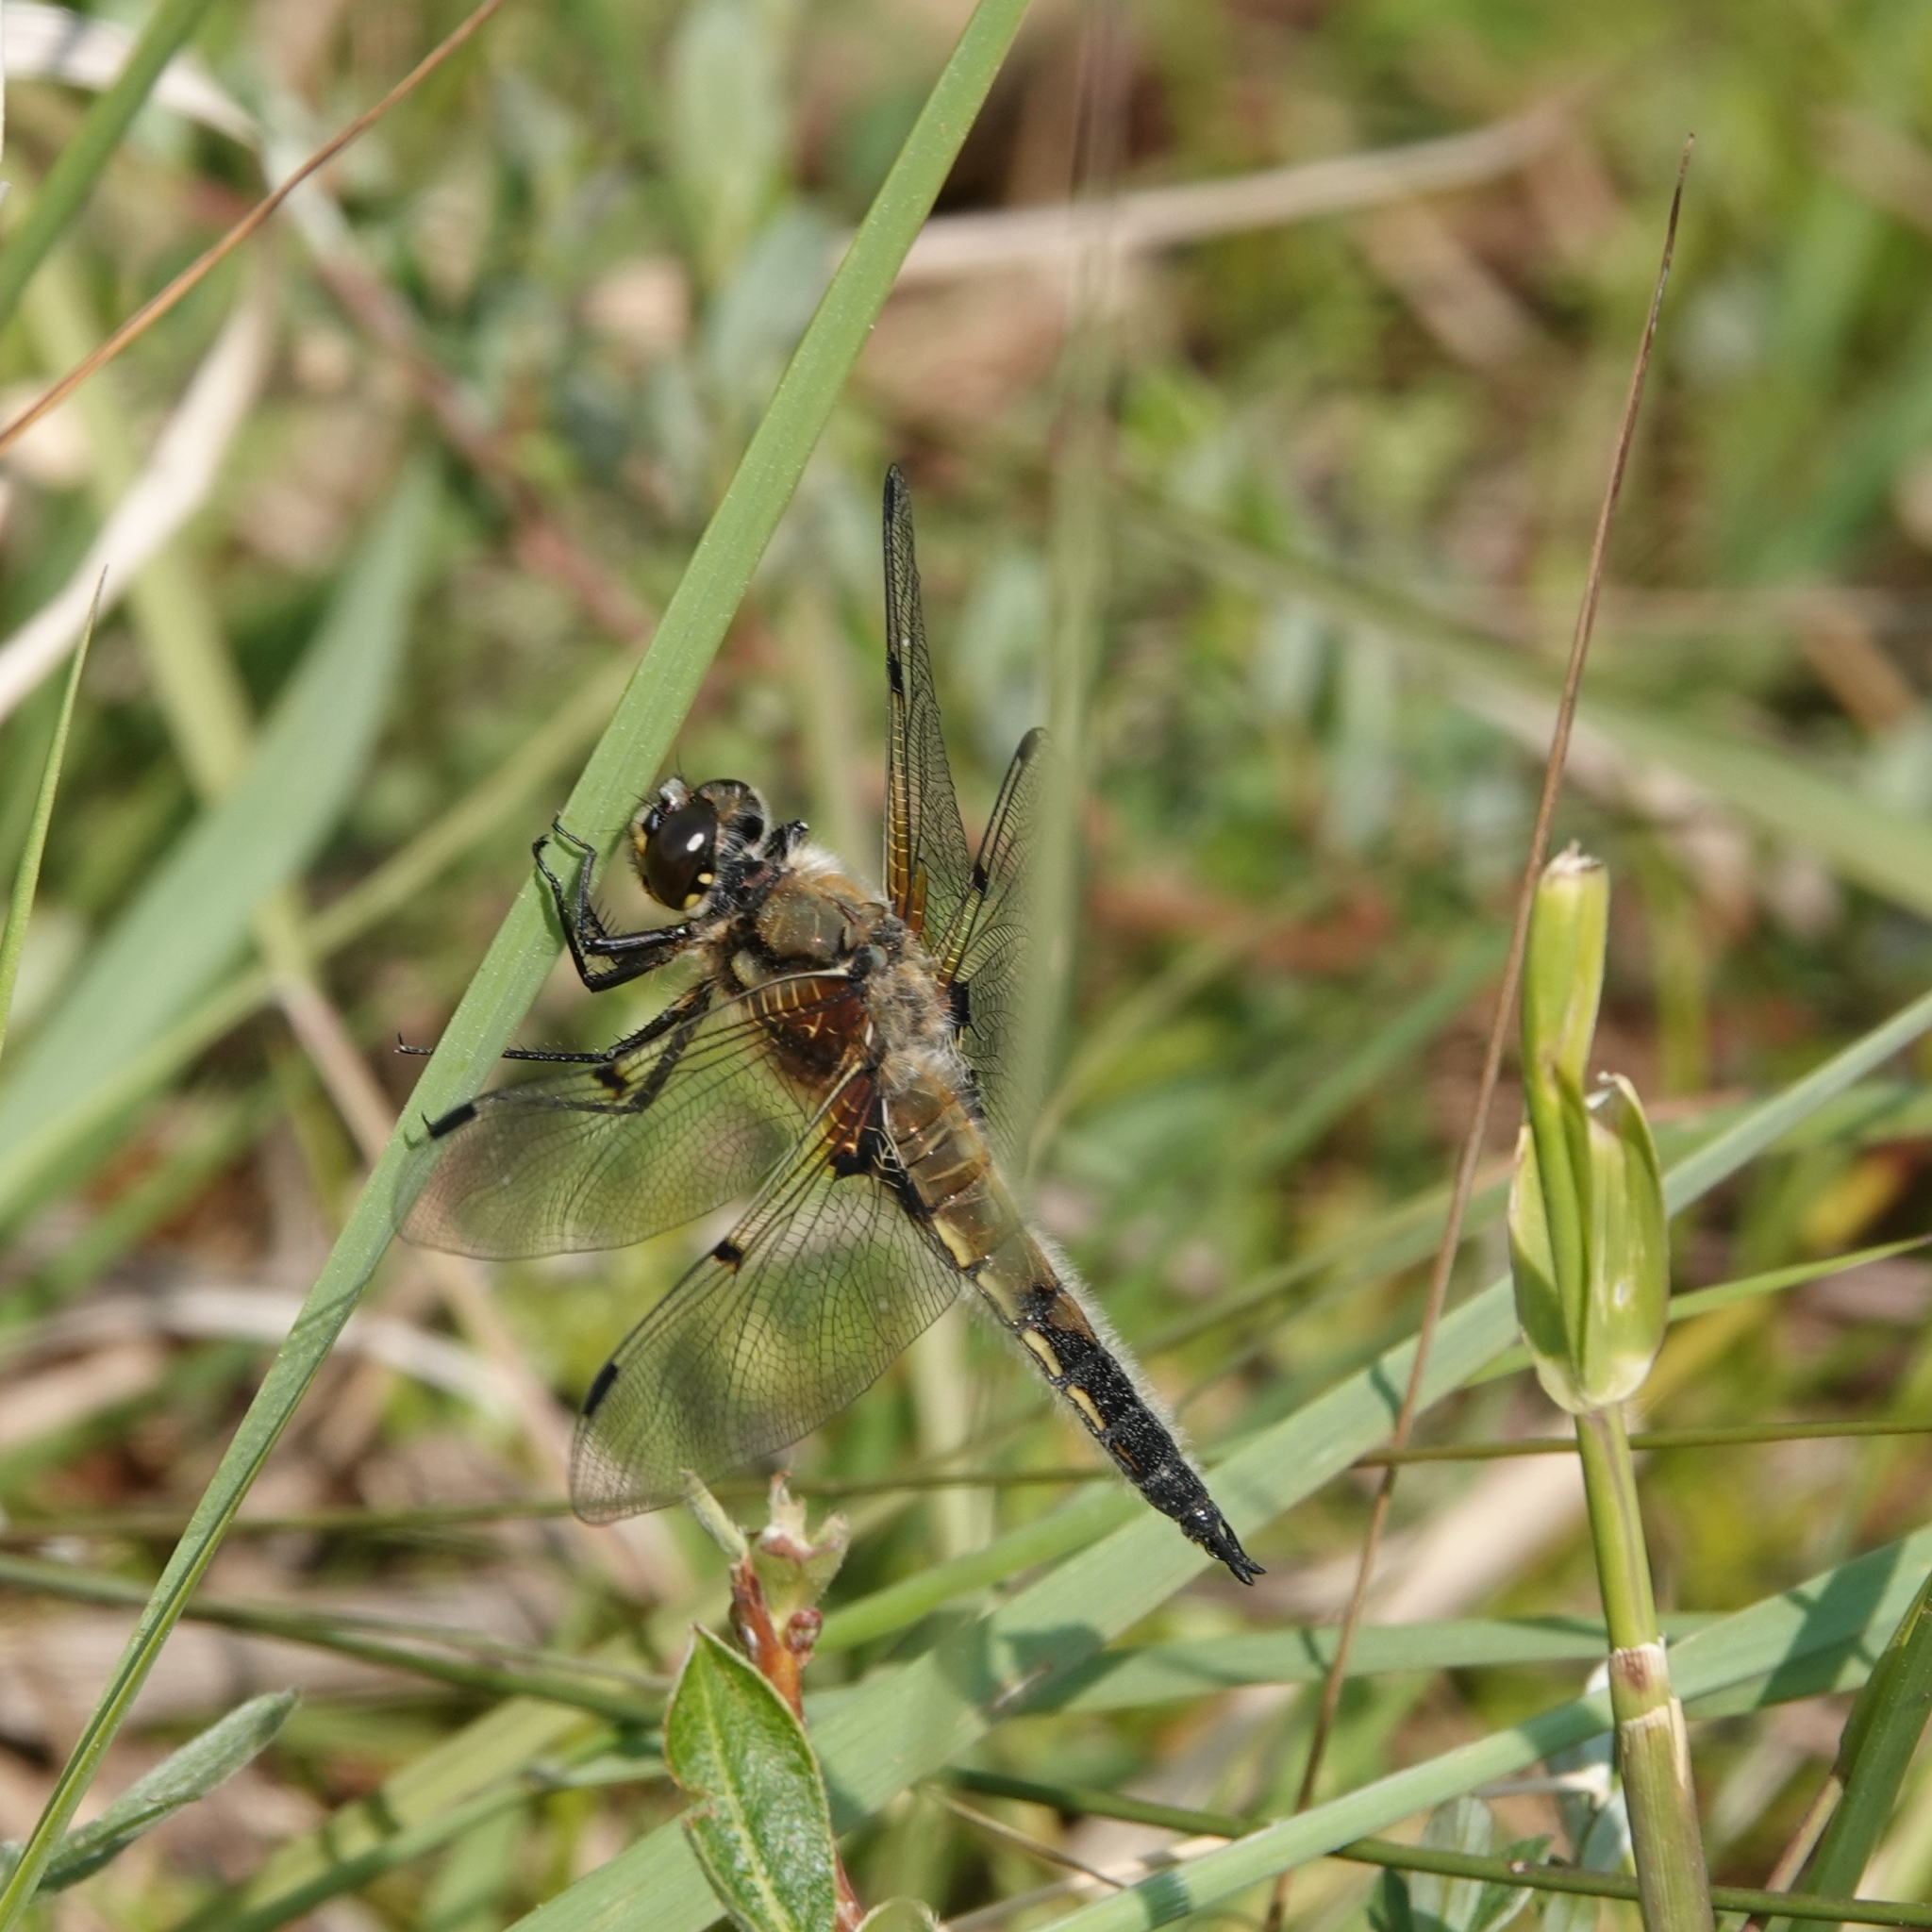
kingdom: Animalia
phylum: Arthropoda
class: Insecta
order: Odonata
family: Libellulidae
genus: Libellula
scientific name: Libellula quadrimaculata
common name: Four-spotted chaser
